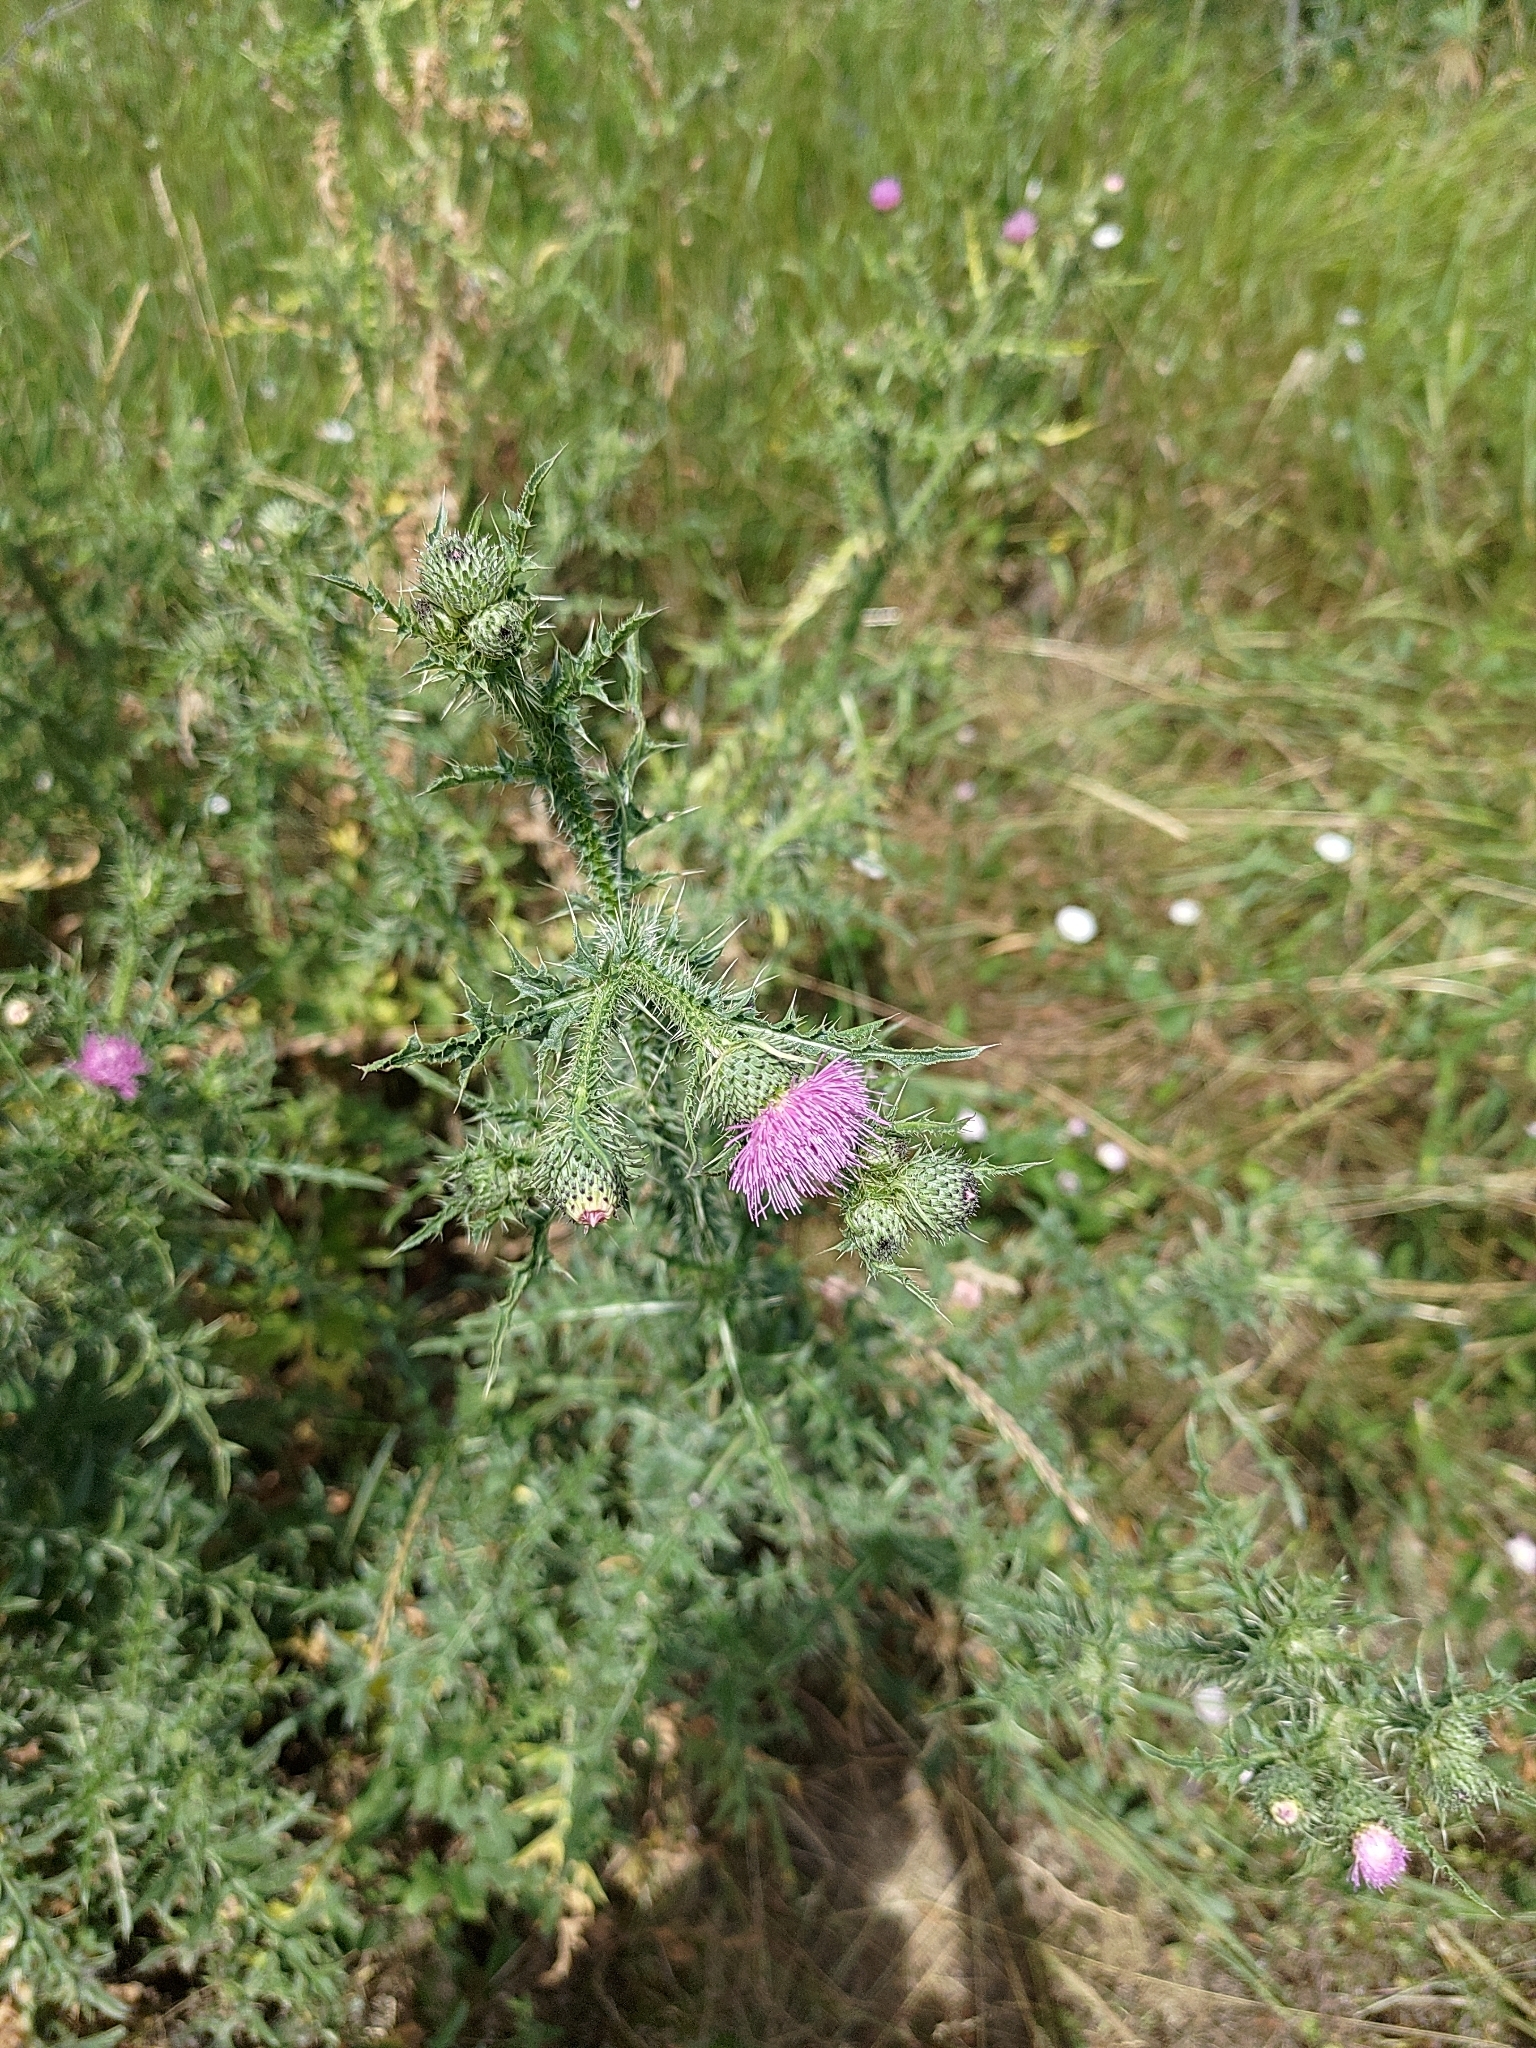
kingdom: Plantae
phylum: Tracheophyta
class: Magnoliopsida
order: Asterales
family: Asteraceae
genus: Carduus
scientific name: Carduus acanthoides
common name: Plumeless thistle
